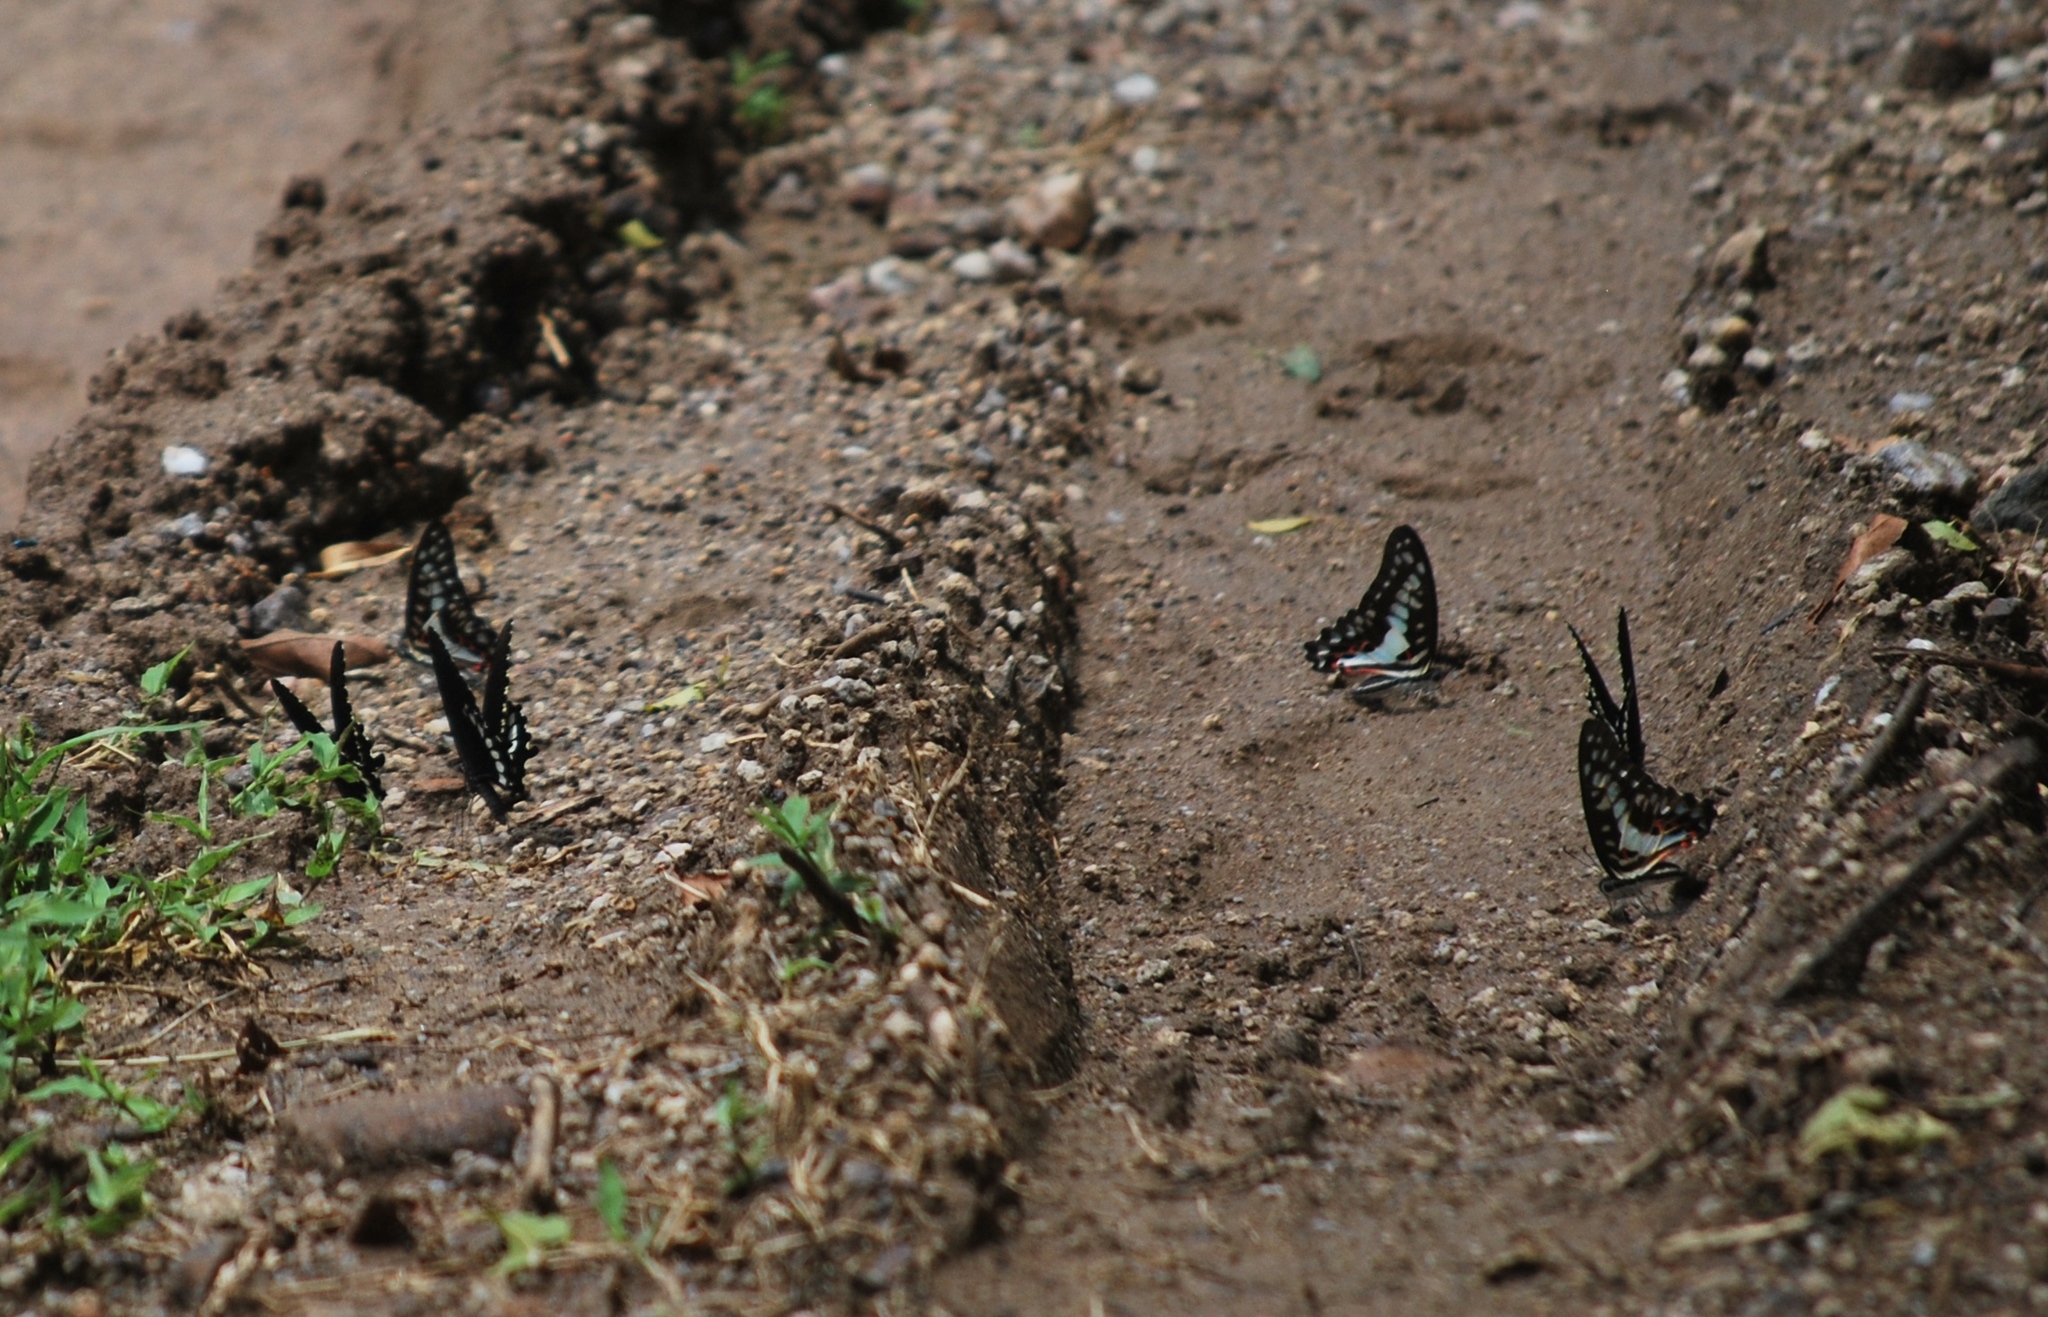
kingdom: Animalia
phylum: Arthropoda
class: Insecta
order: Lepidoptera
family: Papilionidae
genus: Graphium
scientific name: Graphium doson
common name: Common jay
